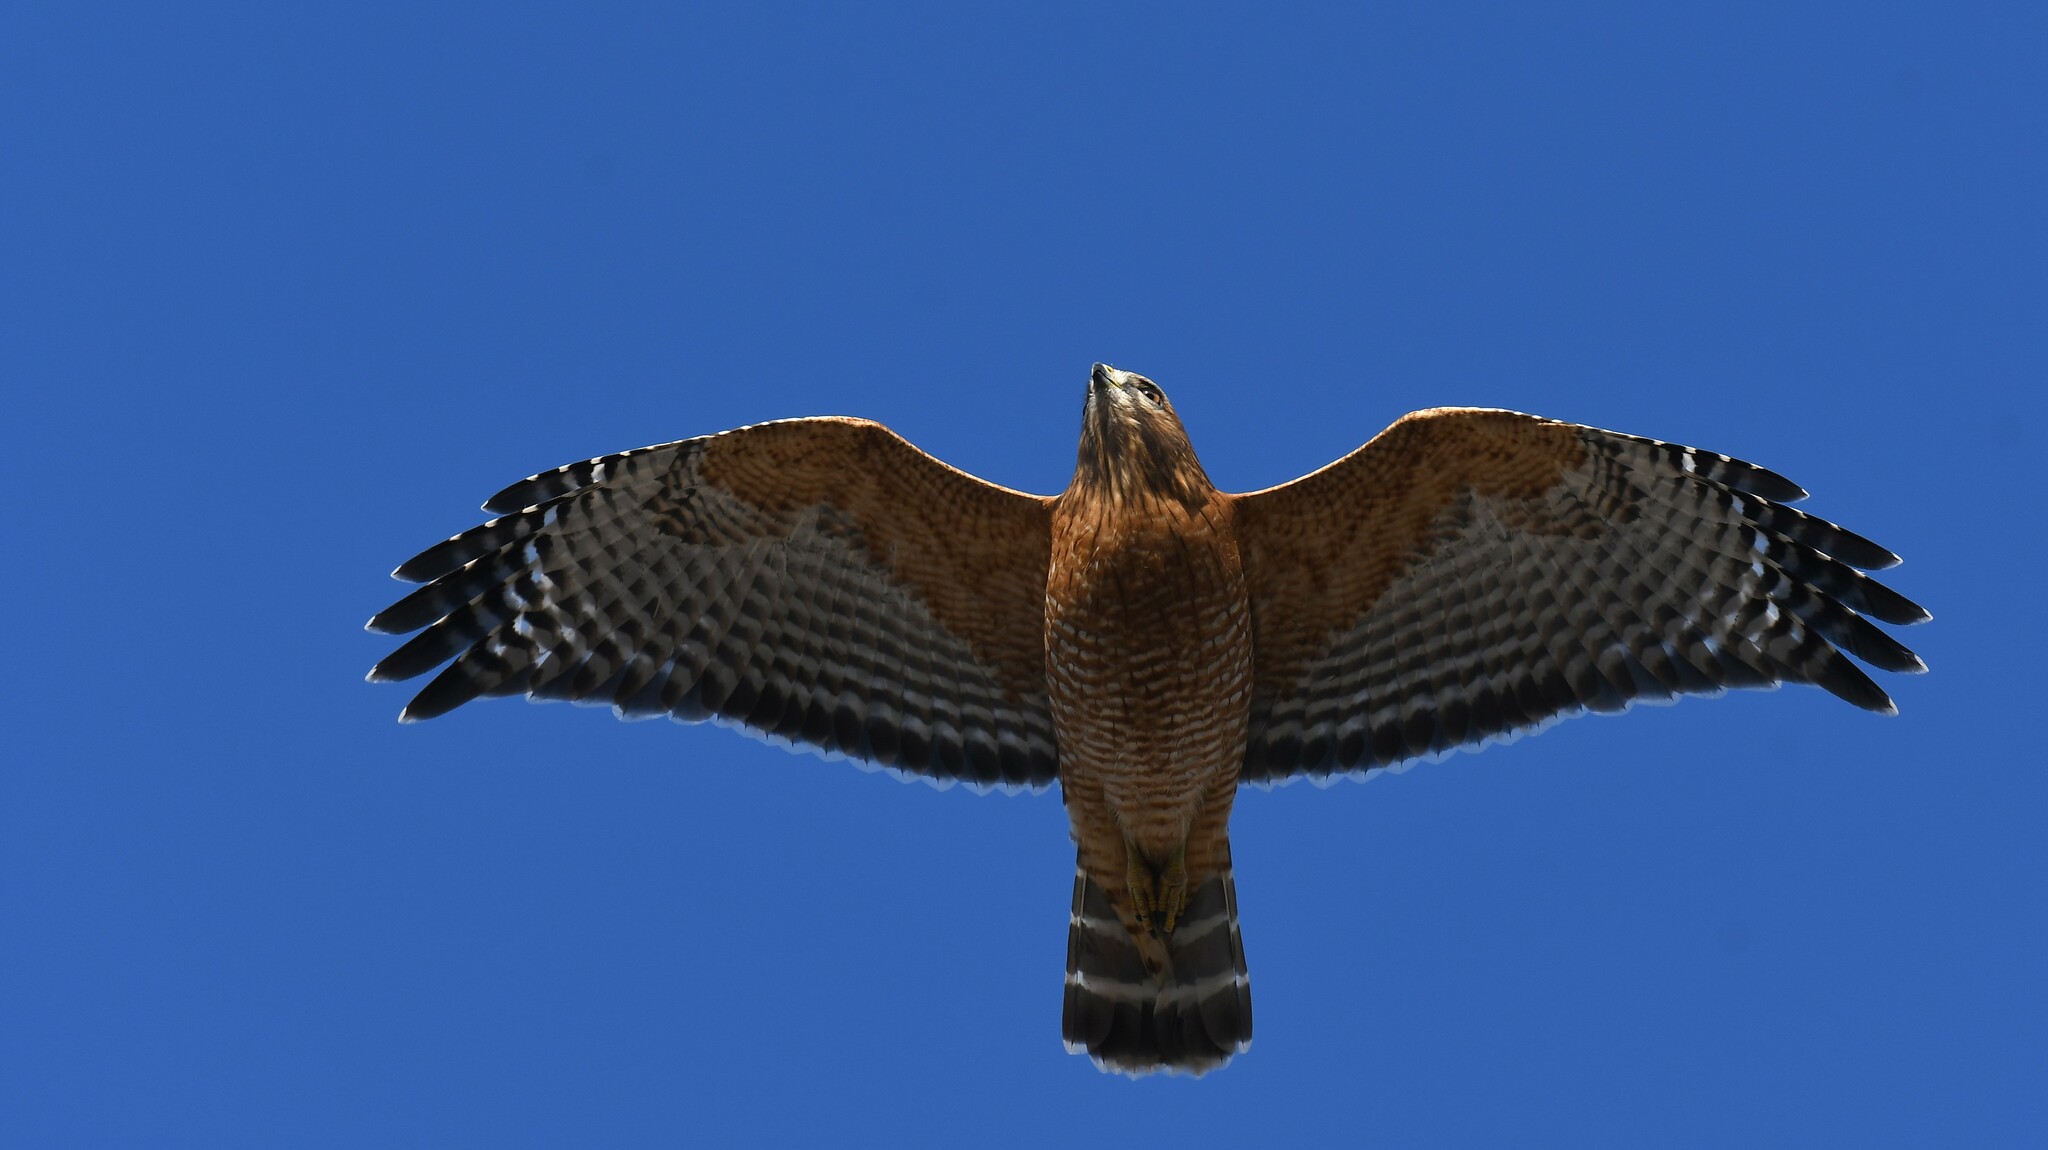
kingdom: Animalia
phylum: Chordata
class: Aves
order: Accipitriformes
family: Accipitridae
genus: Buteo
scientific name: Buteo lineatus
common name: Red-shouldered hawk
